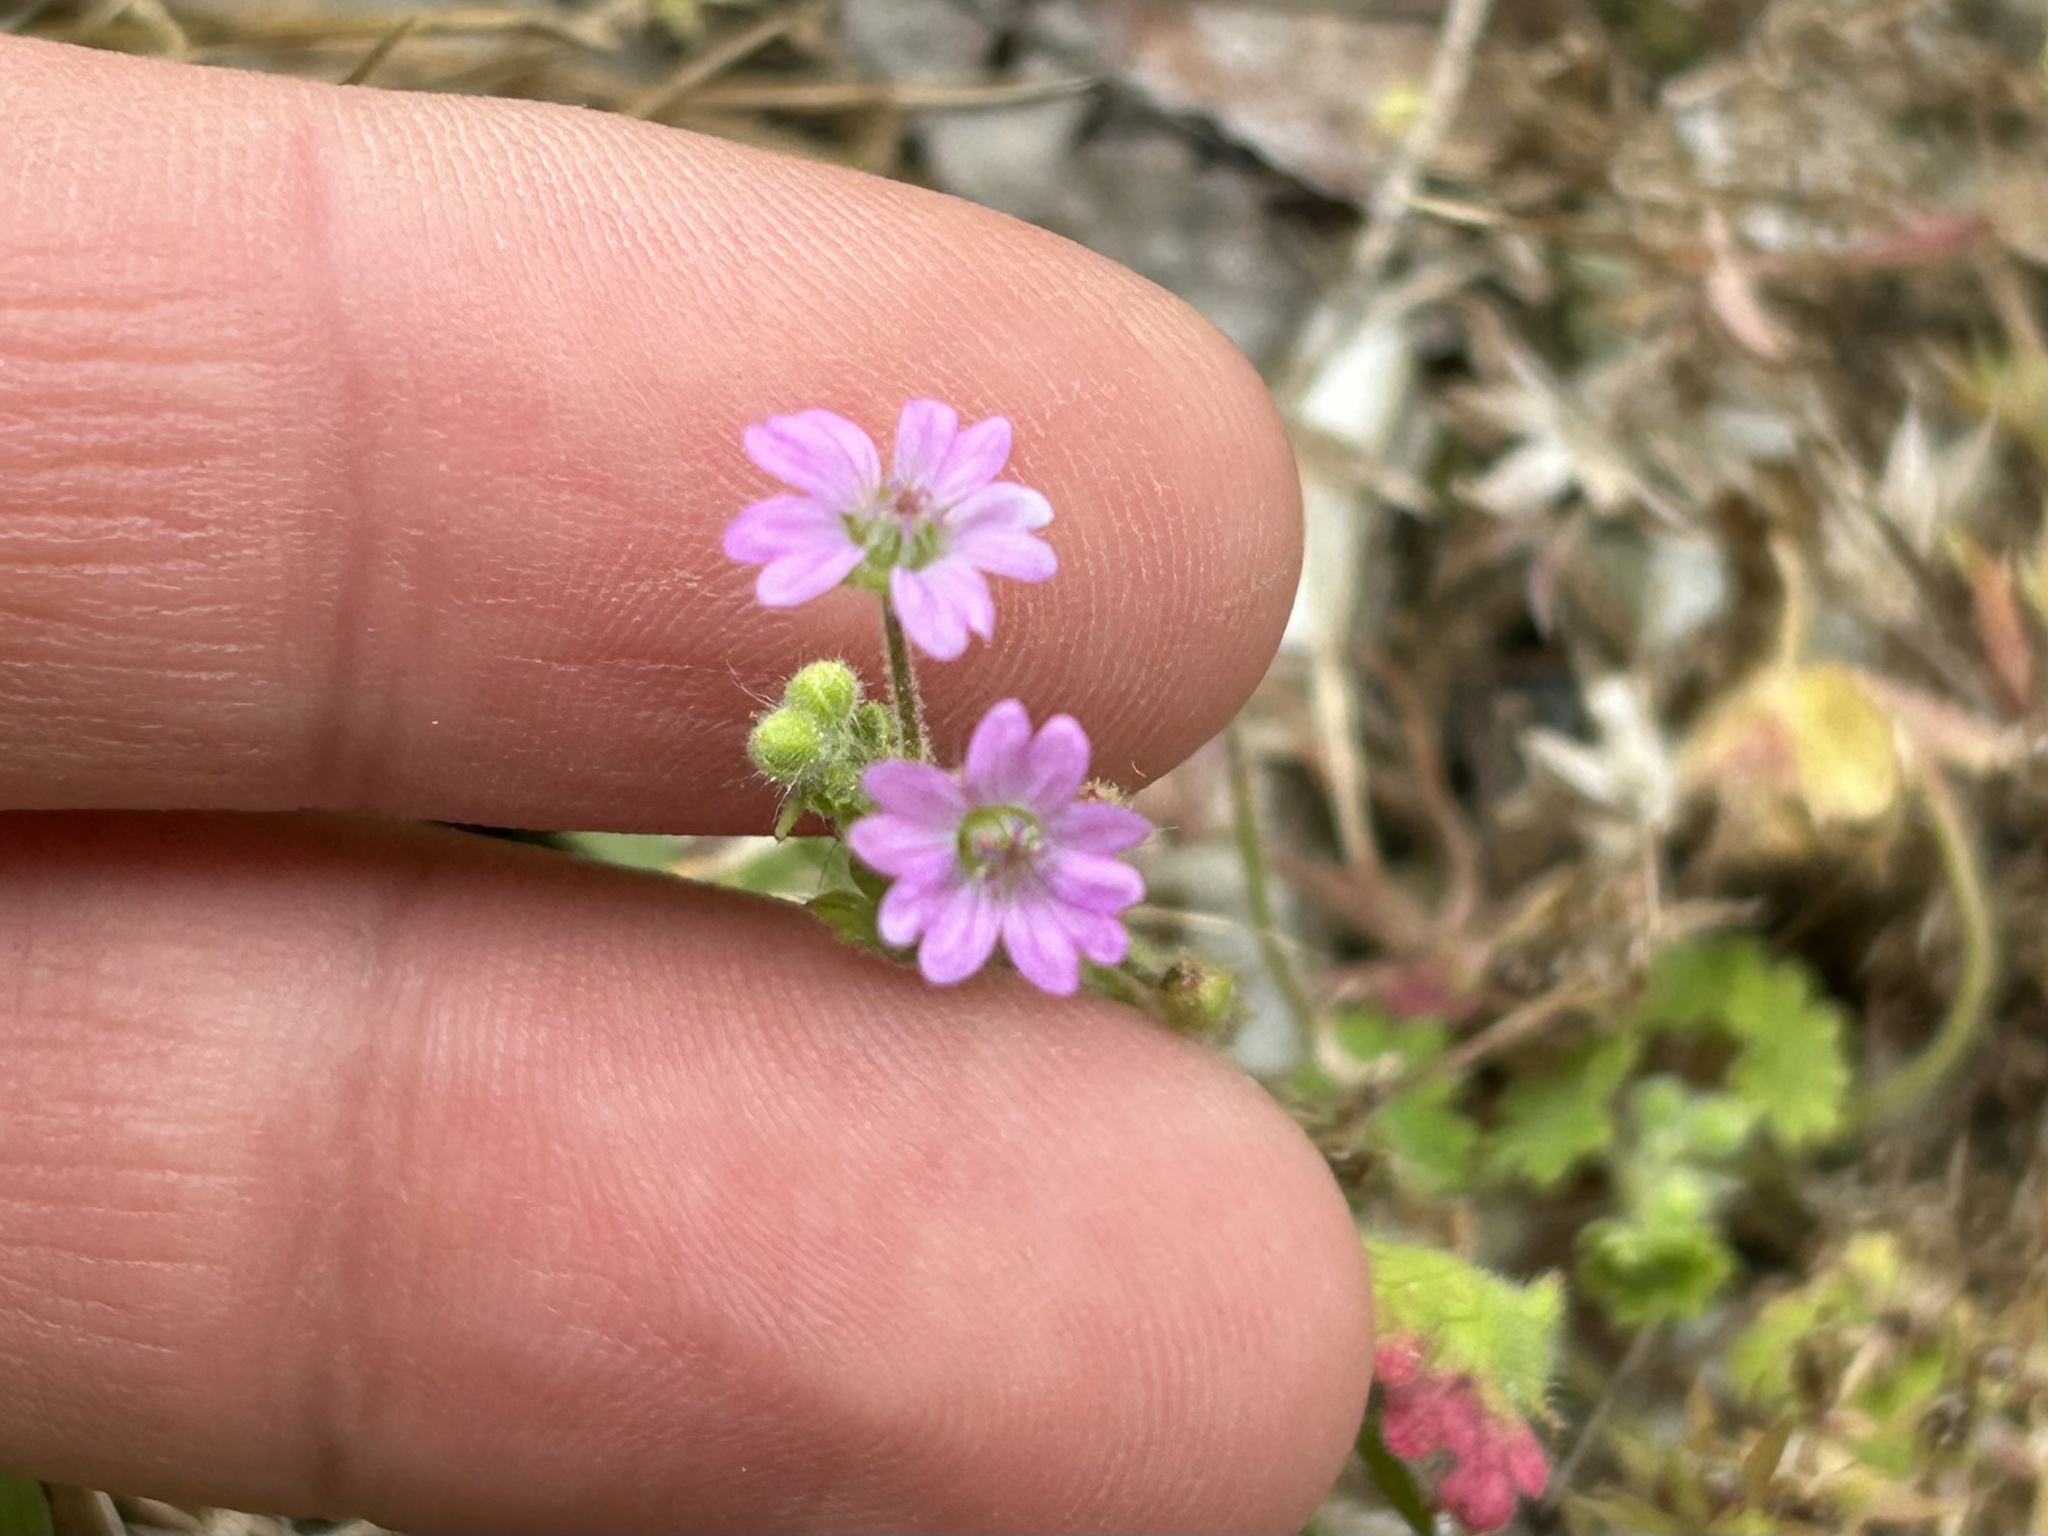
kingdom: Plantae
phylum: Tracheophyta
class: Magnoliopsida
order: Geraniales
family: Geraniaceae
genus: Geranium
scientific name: Geranium molle
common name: Dove's-foot crane's-bill
